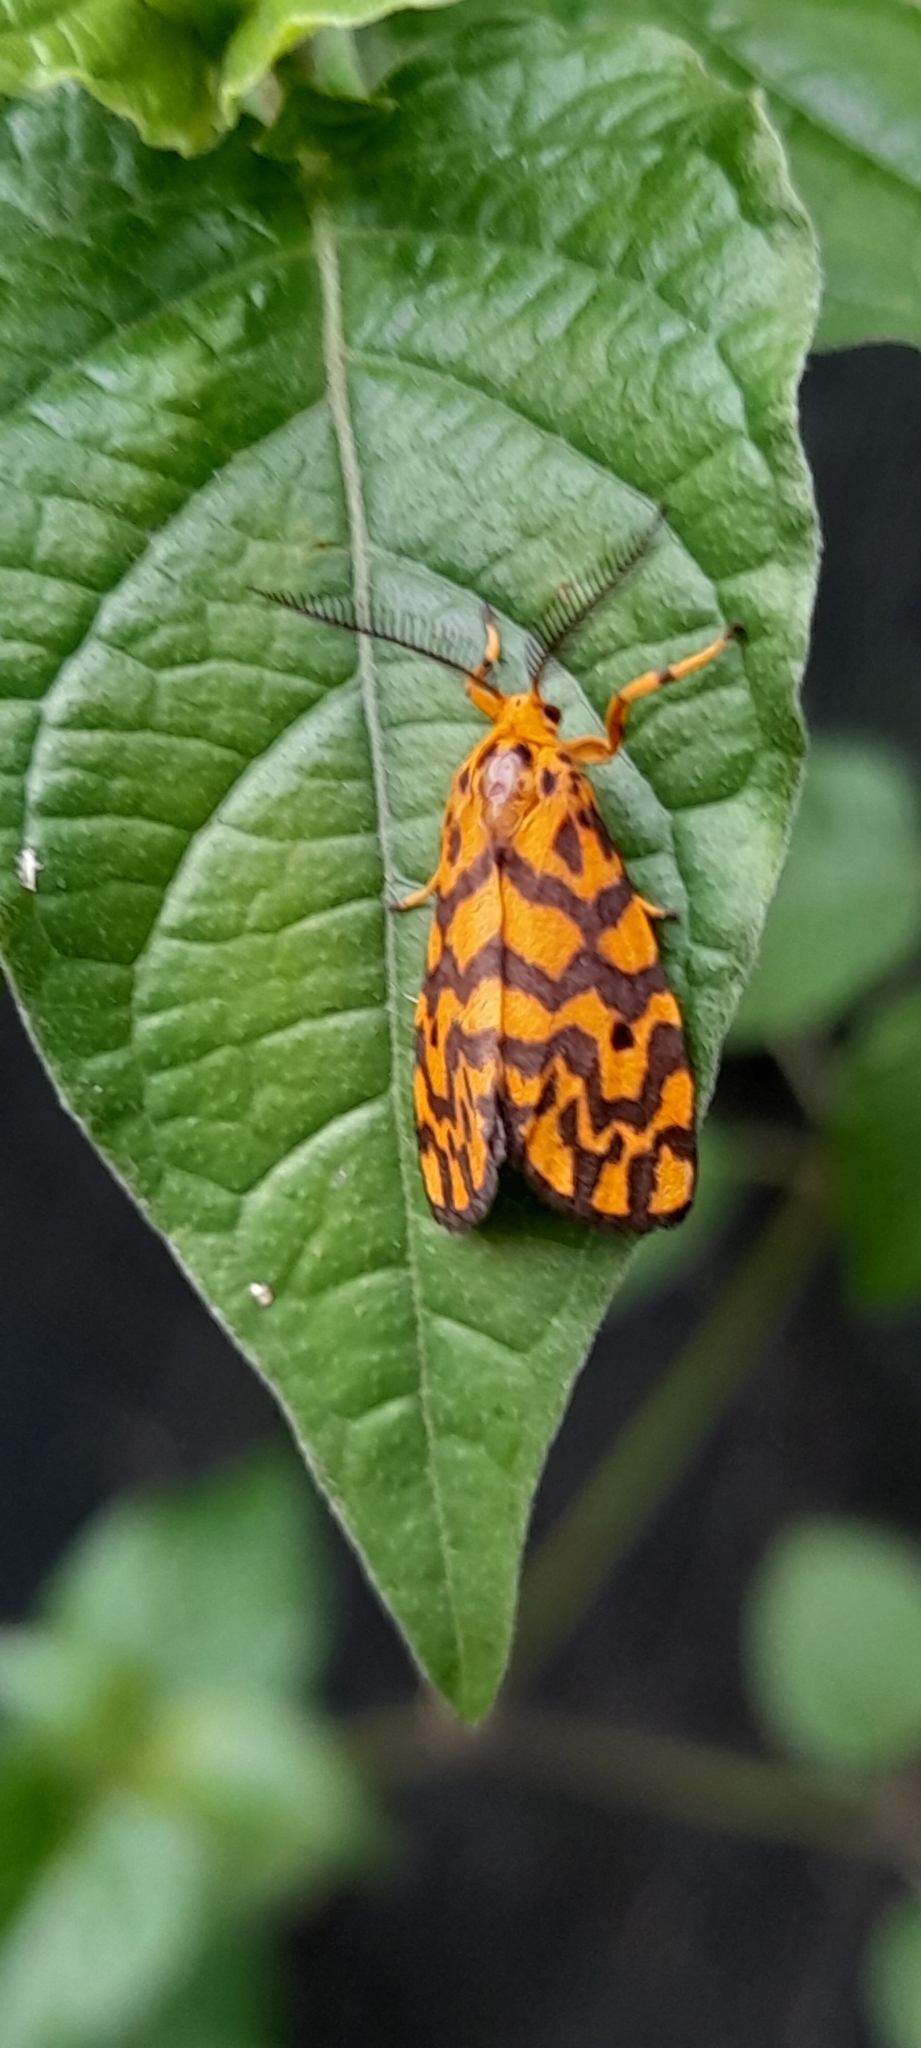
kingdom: Animalia
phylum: Arthropoda
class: Insecta
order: Lepidoptera
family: Erebidae
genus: Nepita
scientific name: Nepita conferta
